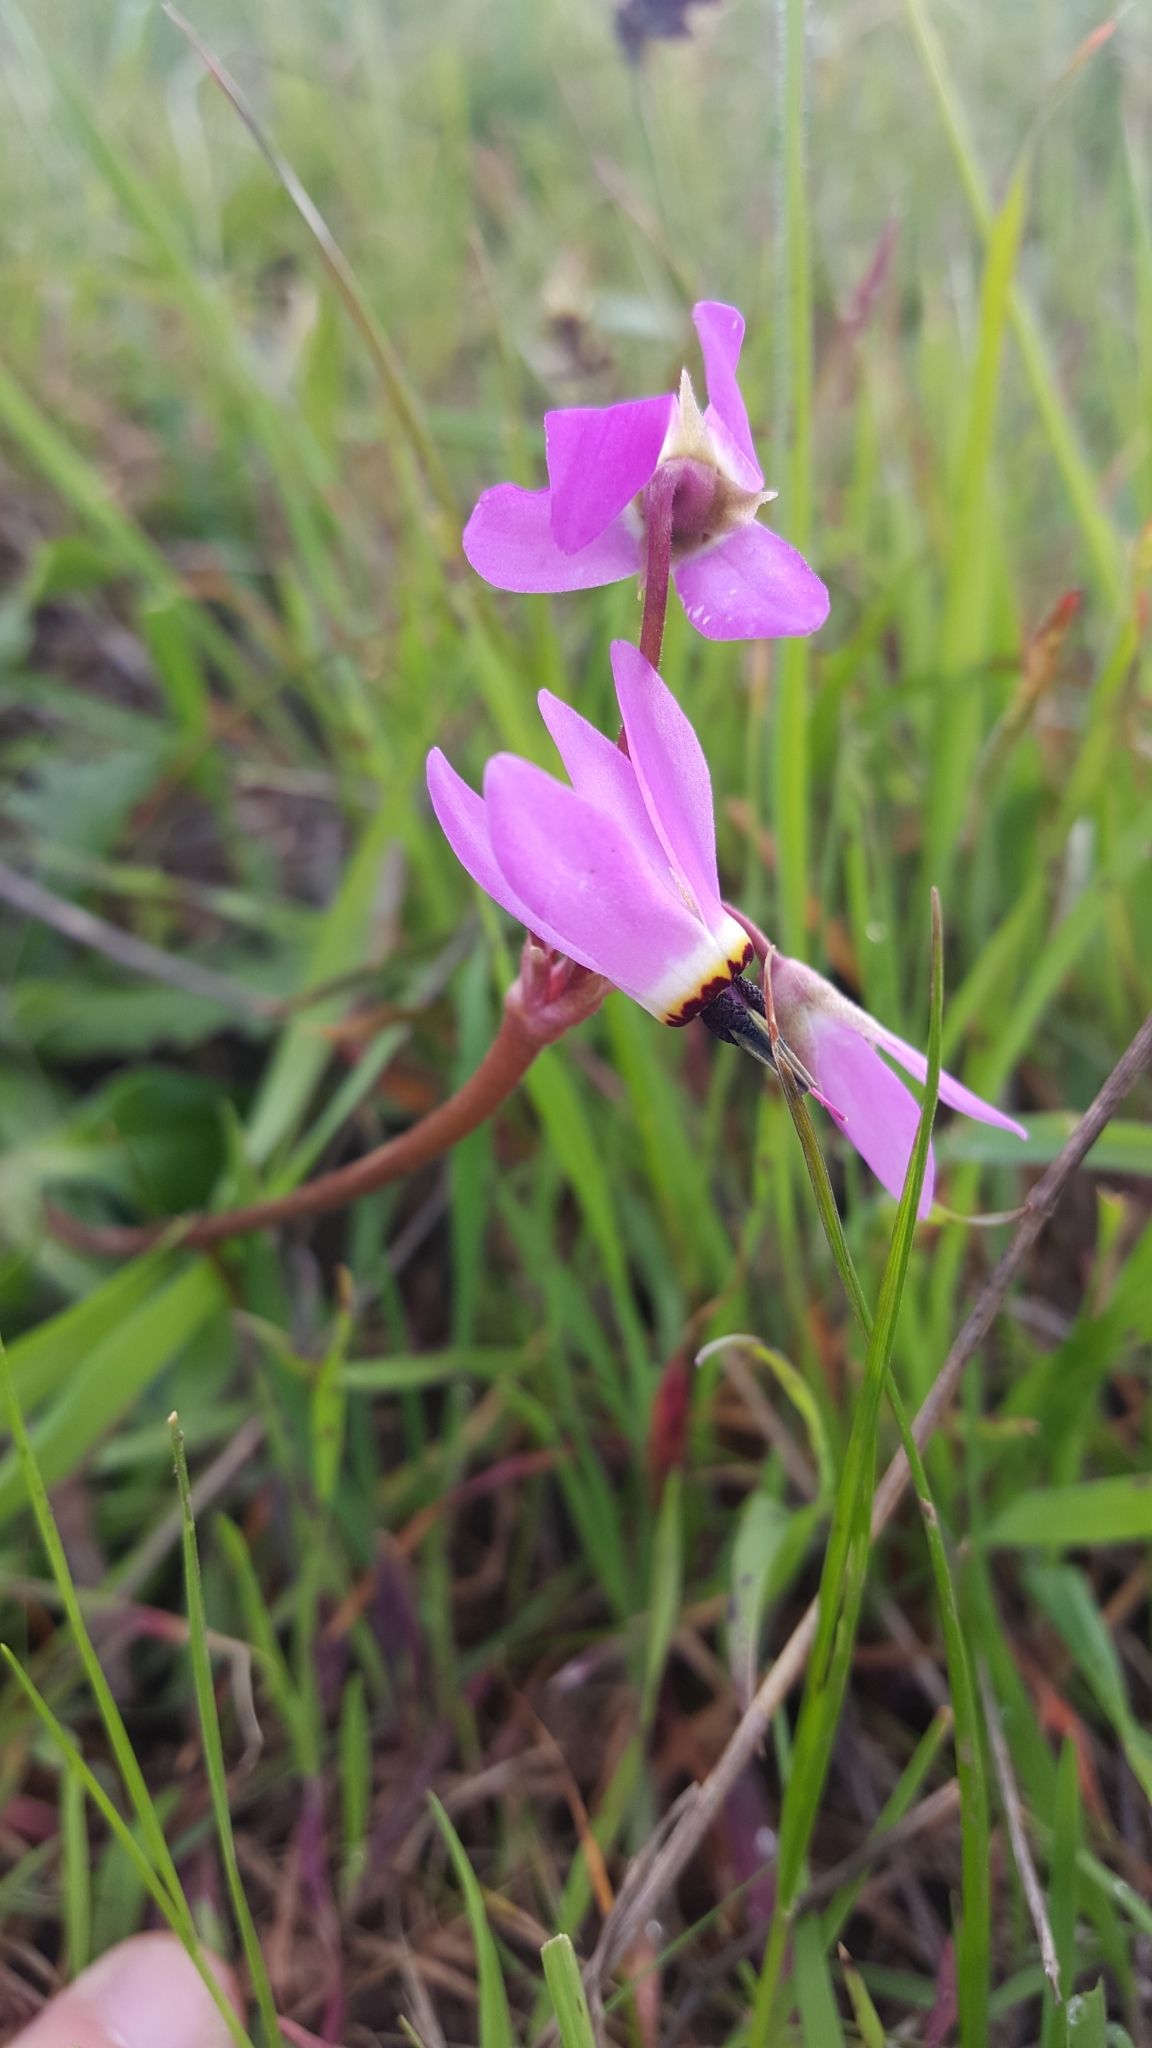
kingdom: Plantae
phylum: Tracheophyta
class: Magnoliopsida
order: Ericales
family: Primulaceae
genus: Dodecatheon
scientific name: Dodecatheon hendersonii
